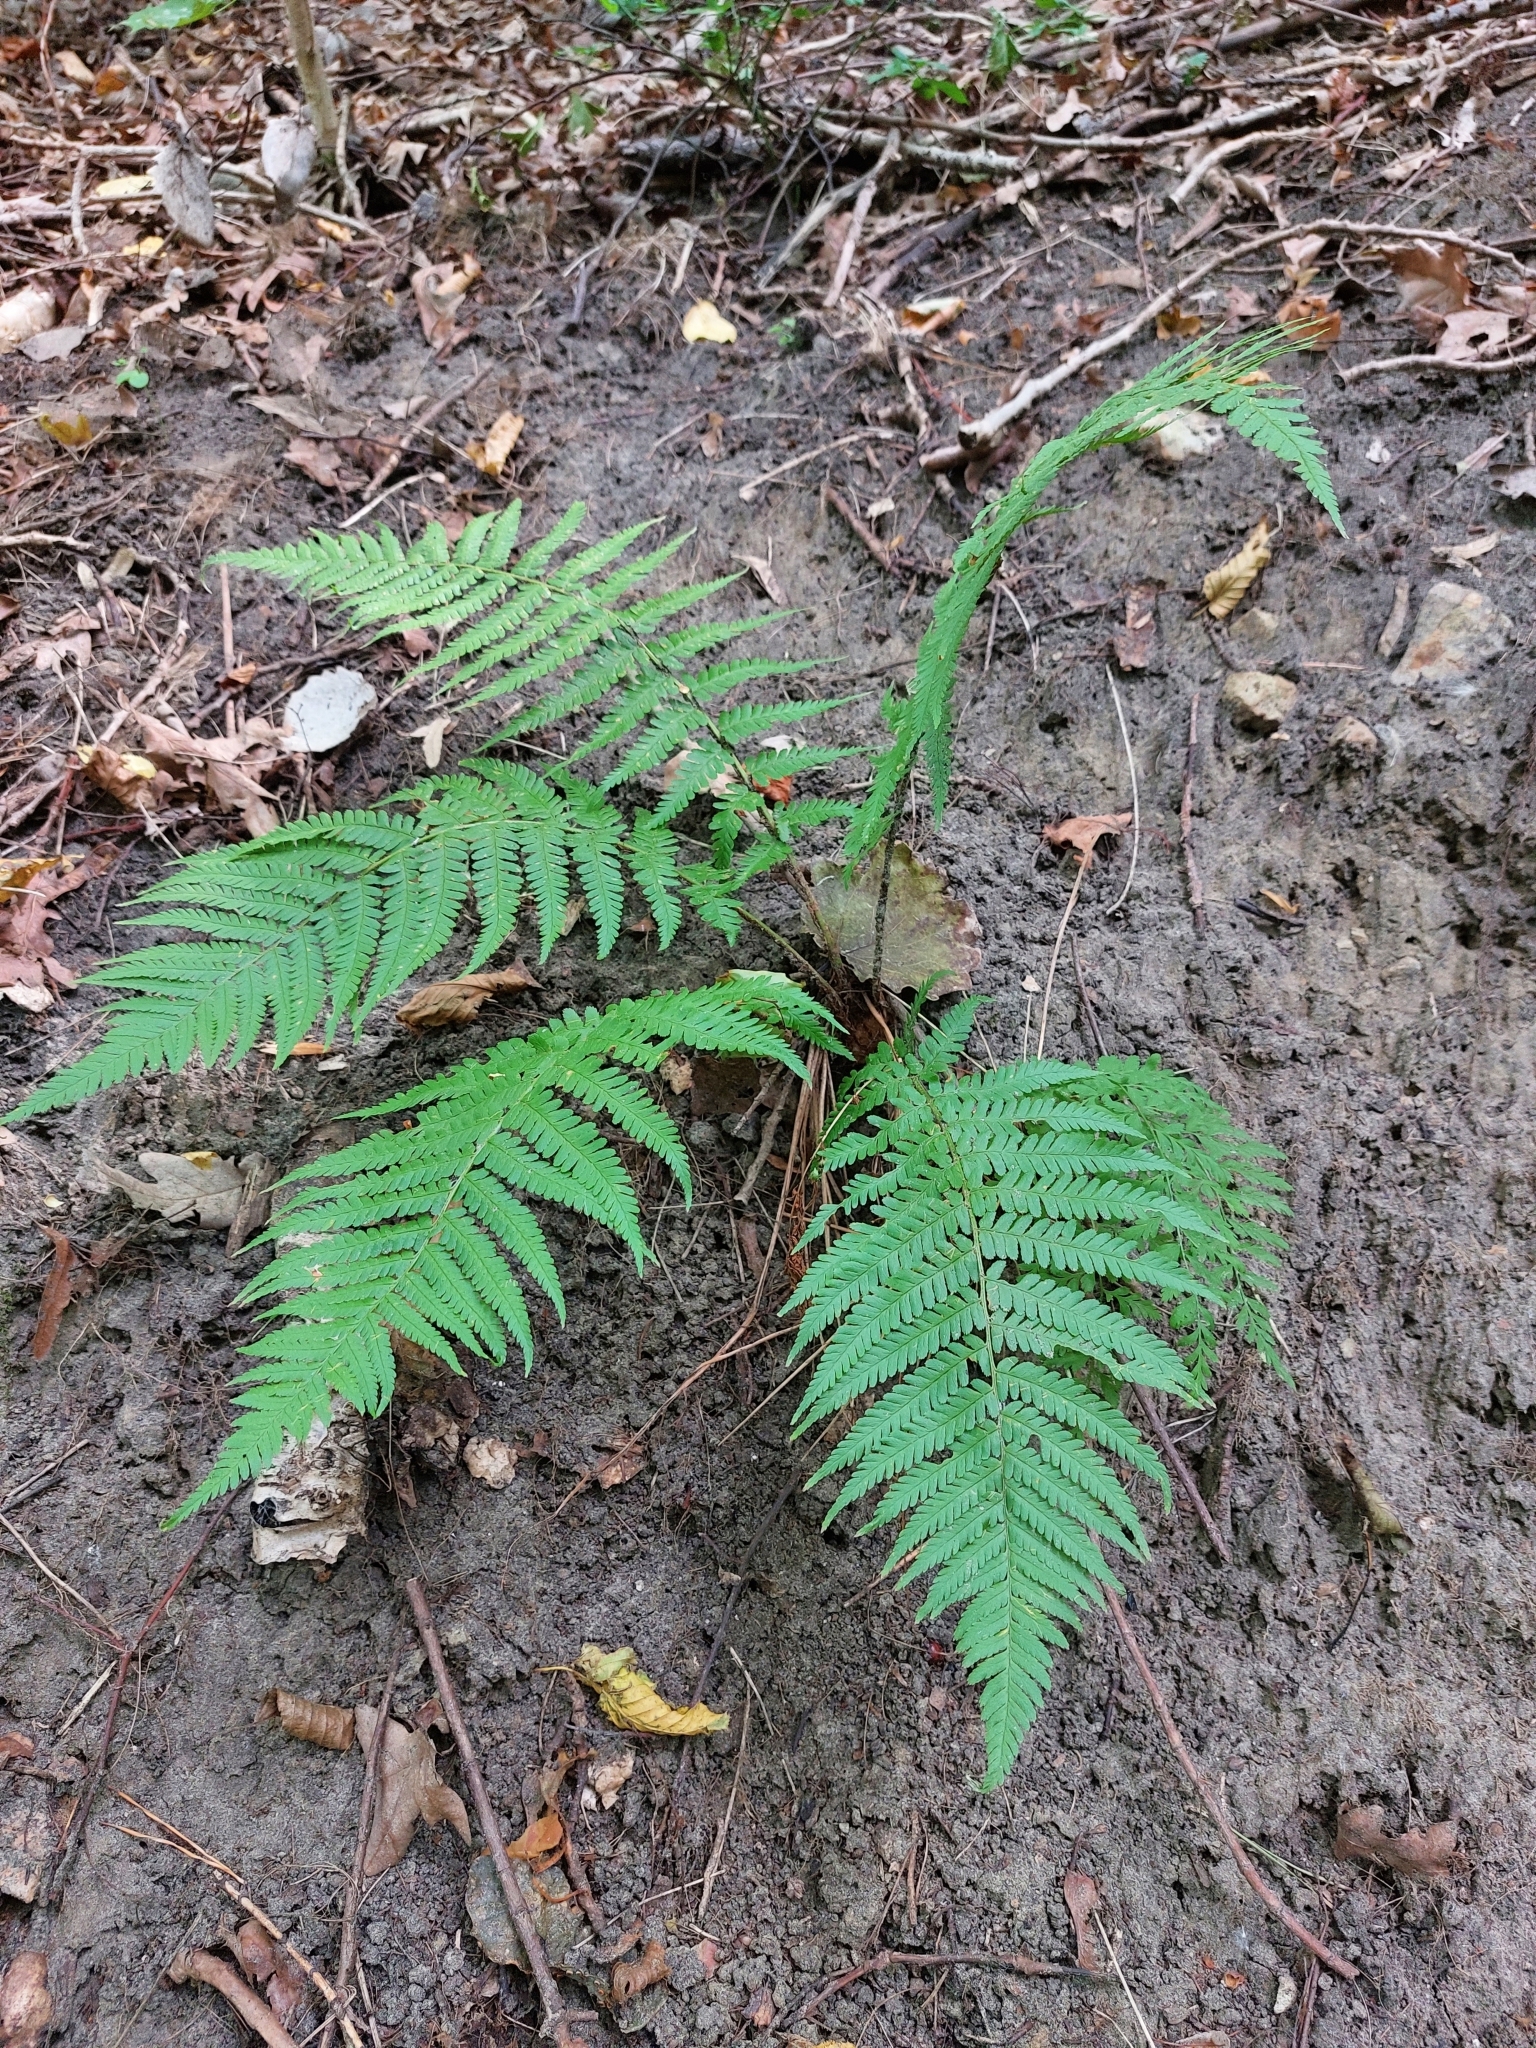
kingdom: Plantae
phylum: Tracheophyta
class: Polypodiopsida
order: Polypodiales
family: Dryopteridaceae
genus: Dryopteris
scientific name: Dryopteris filix-mas
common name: Male fern
